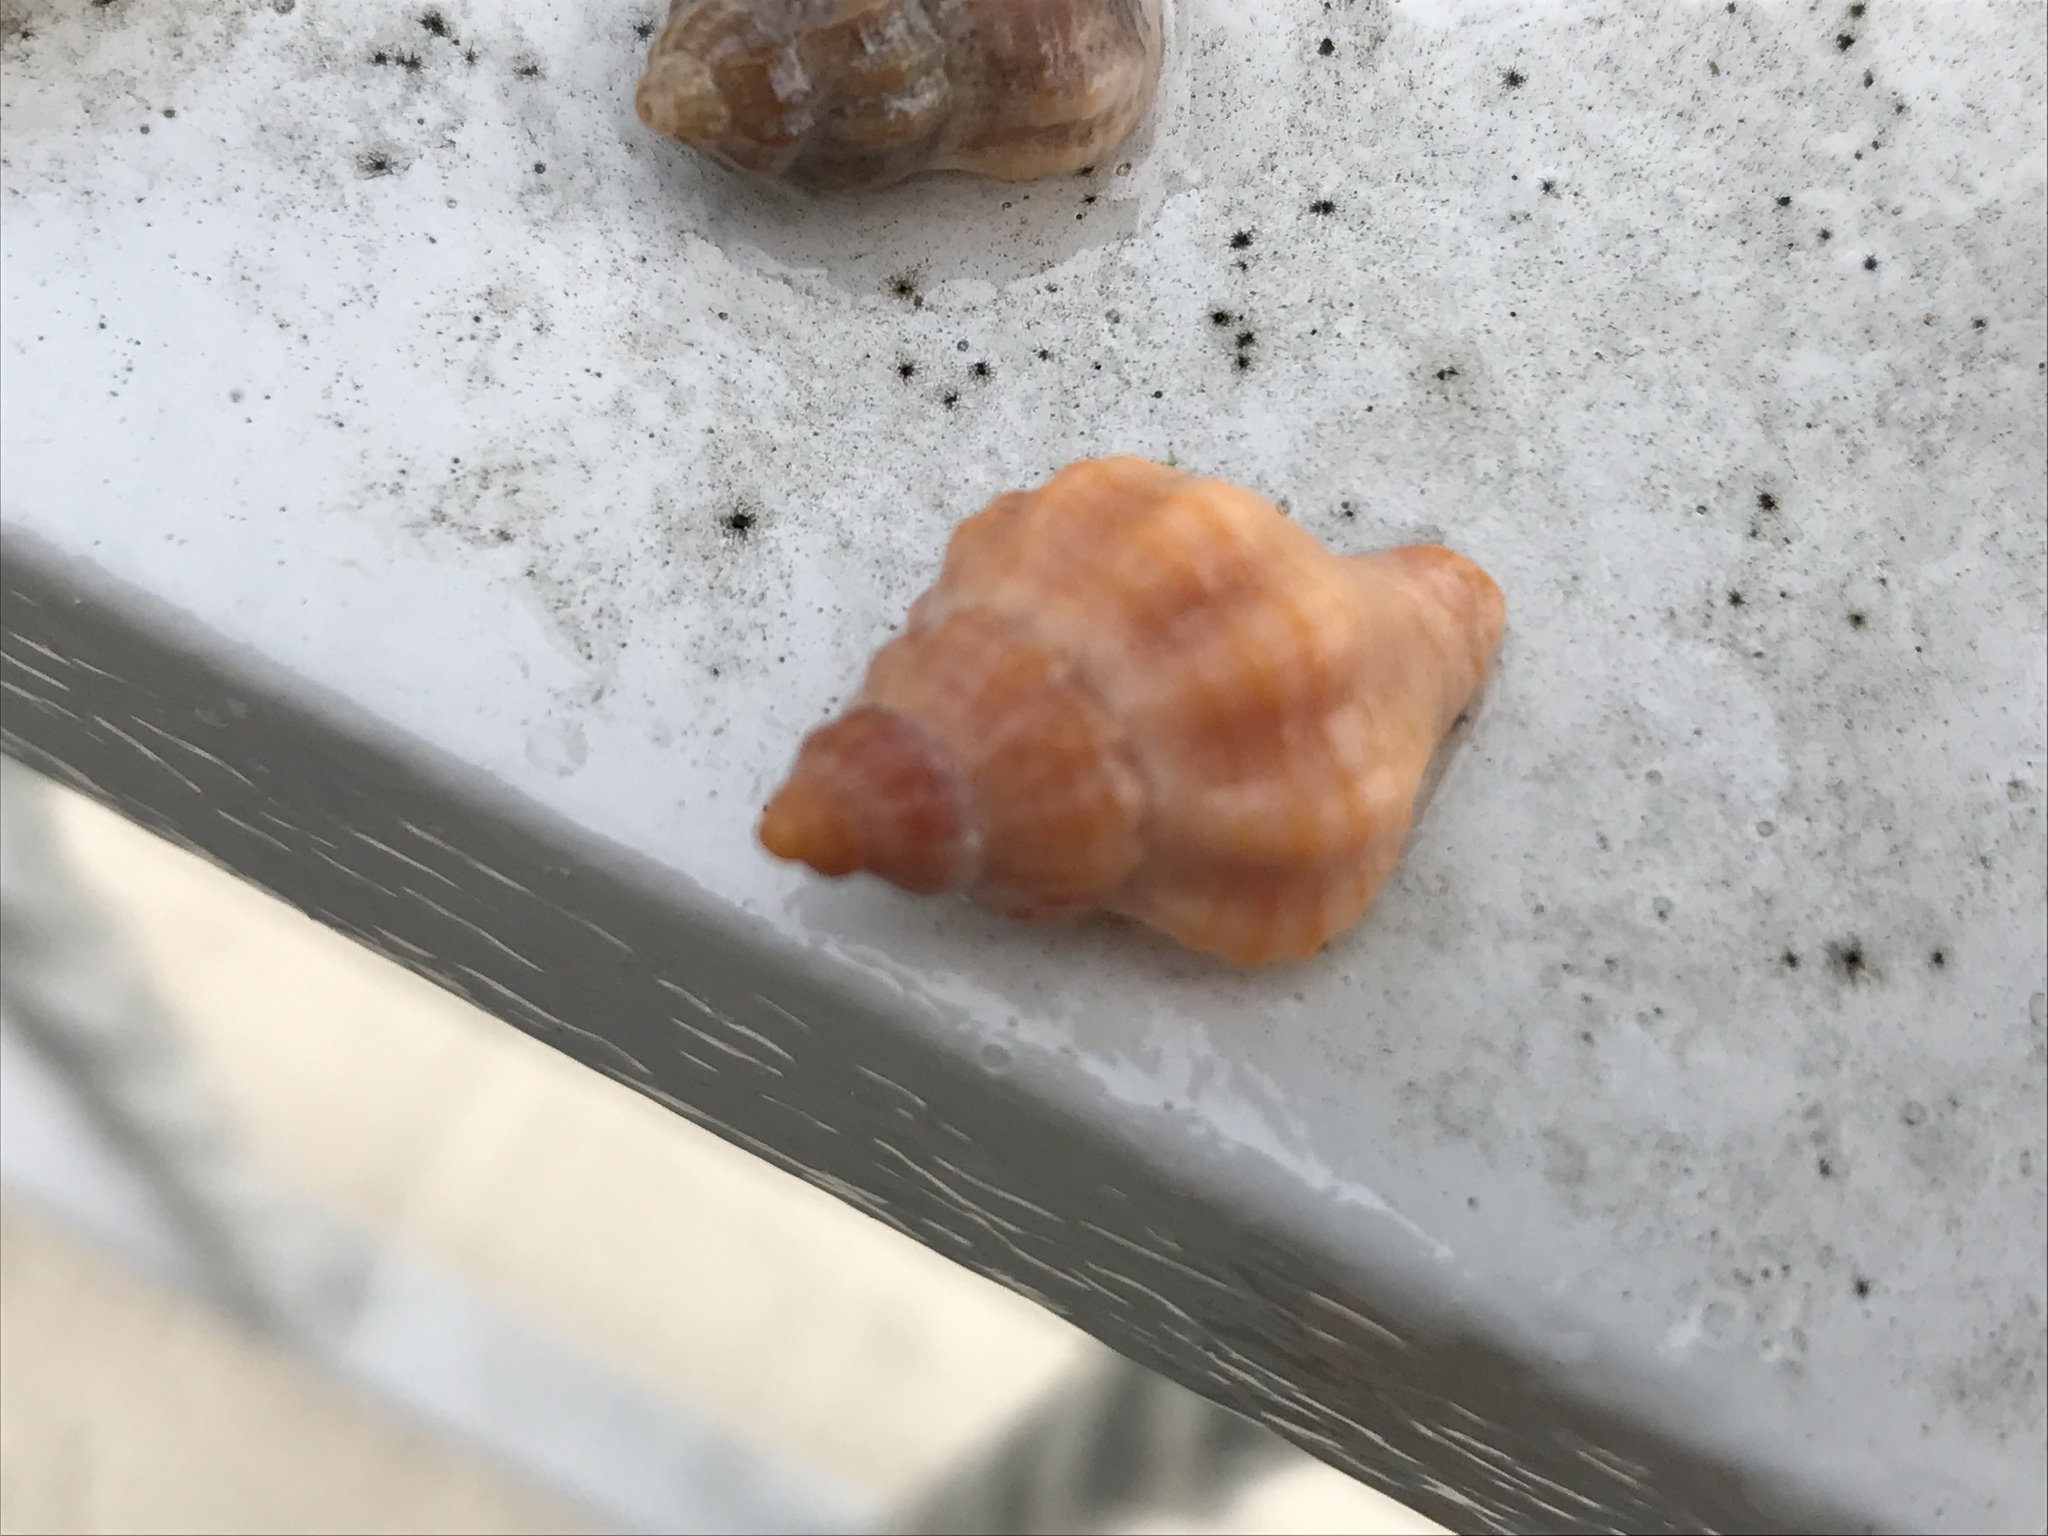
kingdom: Animalia
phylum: Mollusca
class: Gastropoda
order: Neogastropoda
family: Muricidae
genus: Urosalpinx
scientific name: Urosalpinx cinerea
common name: American sting winkle
